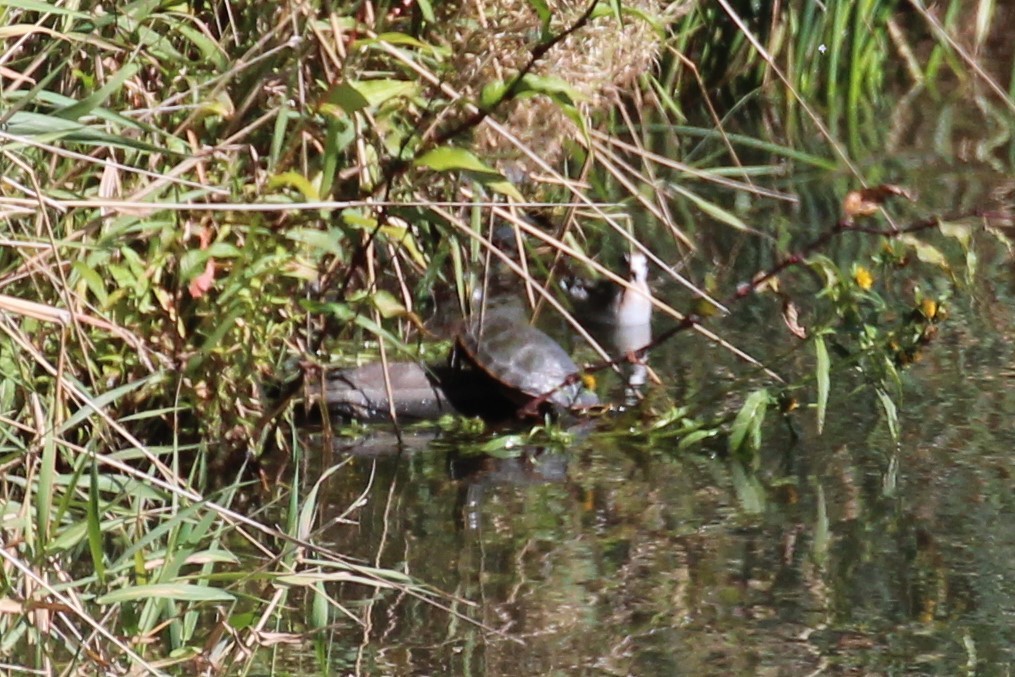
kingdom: Animalia
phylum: Chordata
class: Testudines
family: Emydidae
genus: Chrysemys
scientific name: Chrysemys picta
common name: Painted turtle
